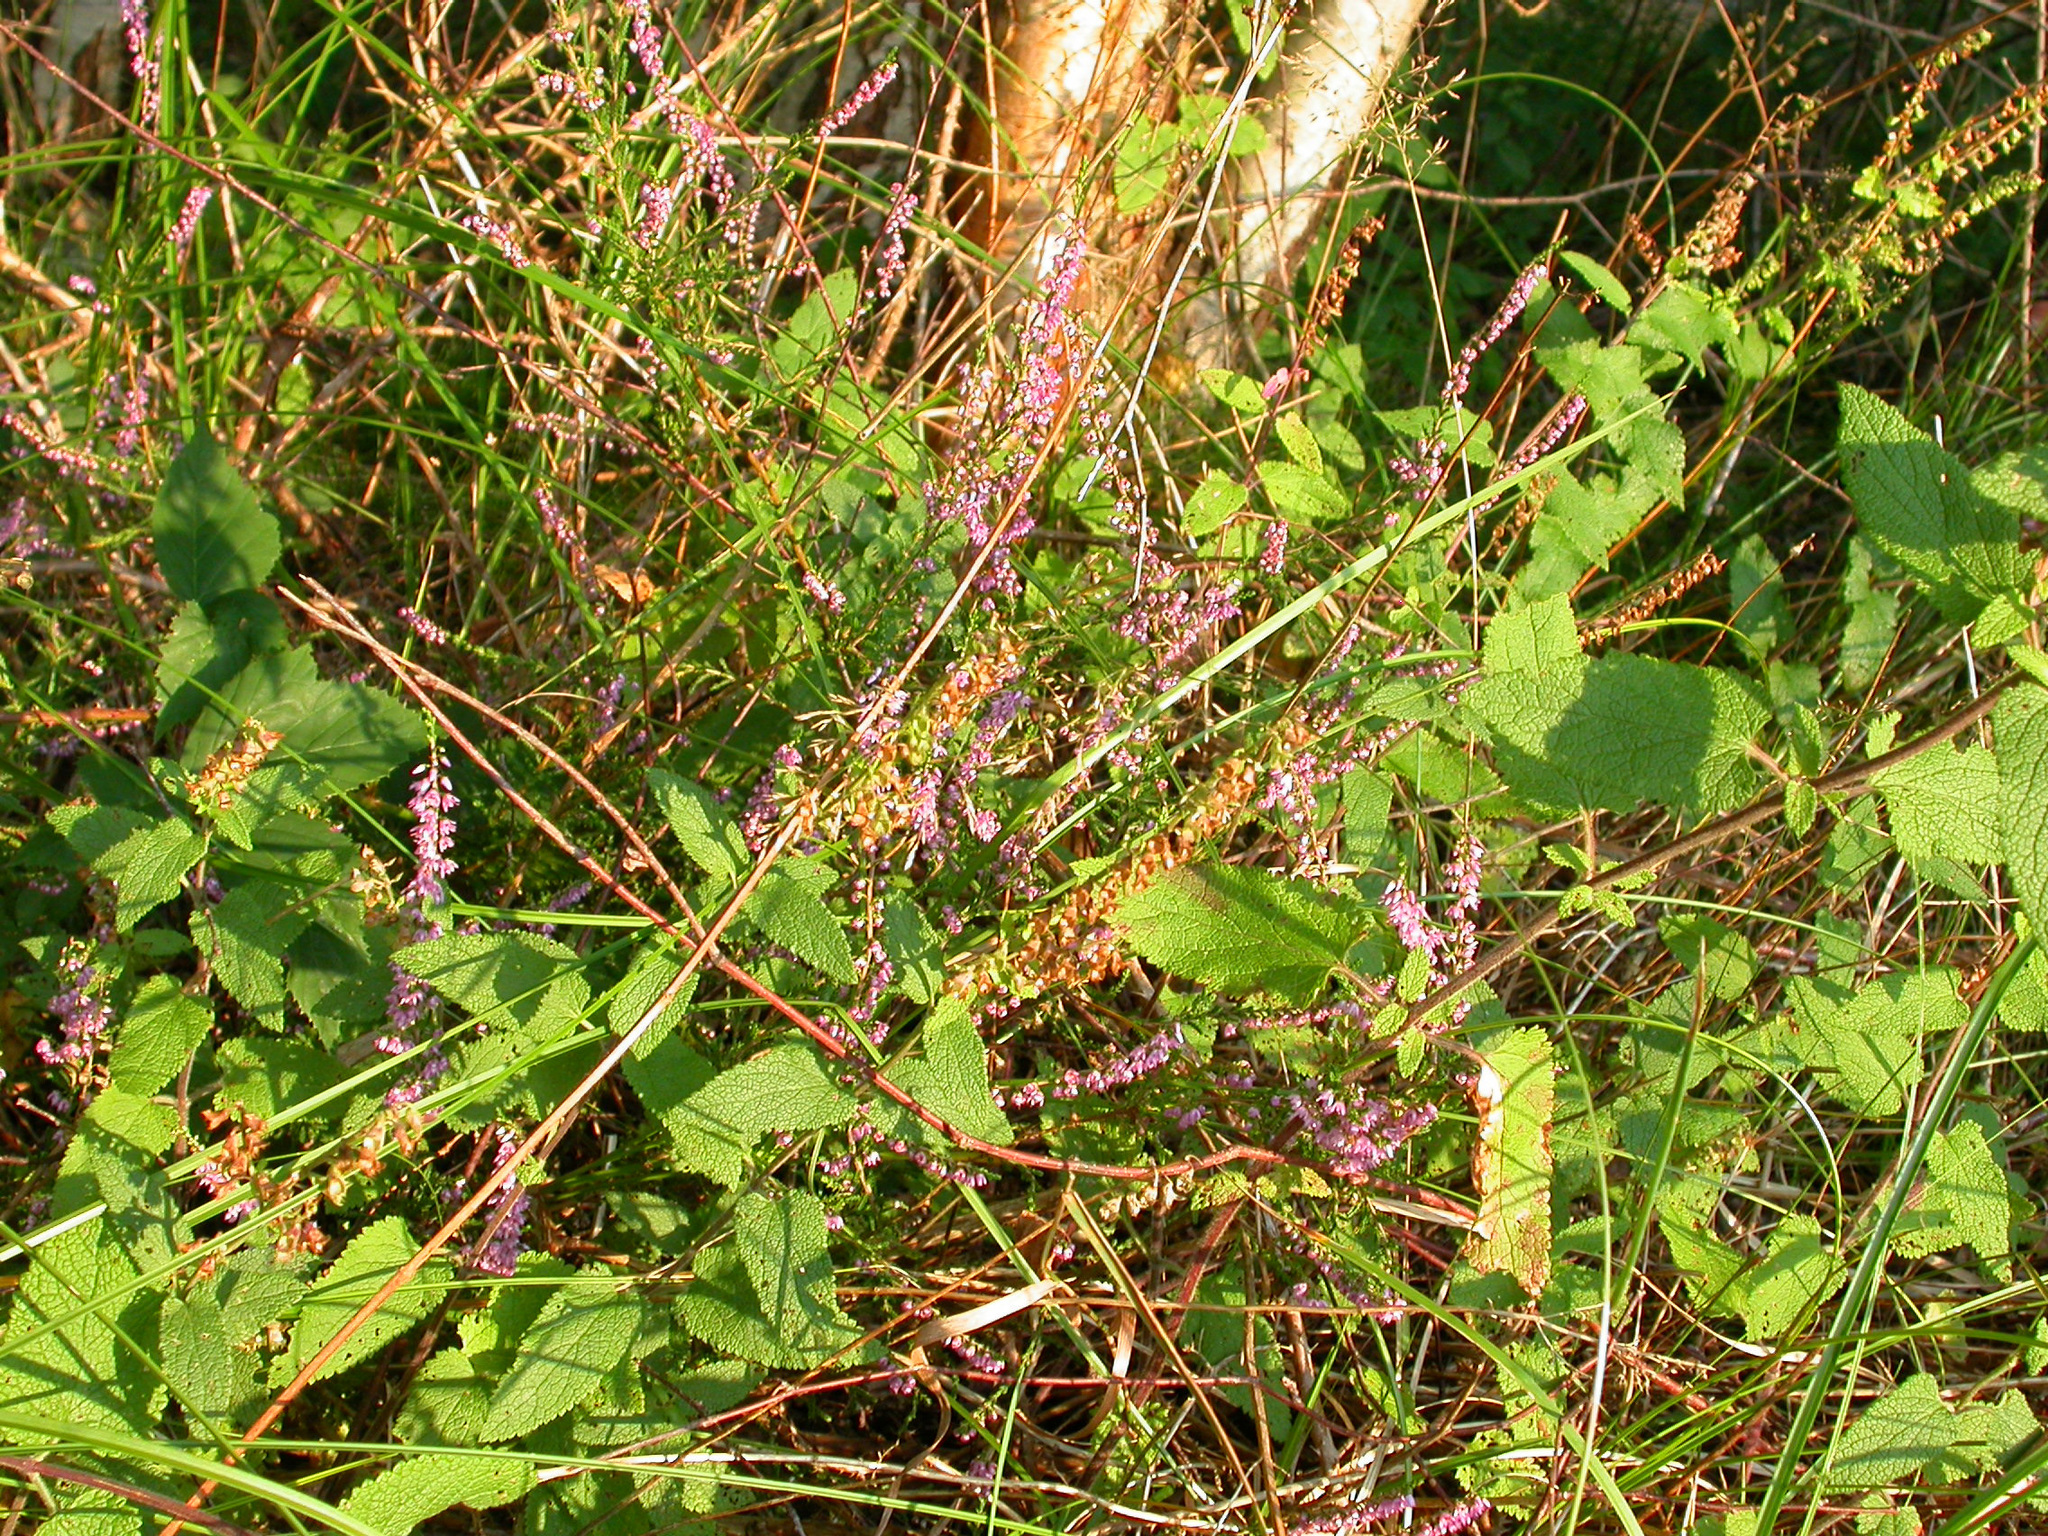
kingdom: Plantae
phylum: Tracheophyta
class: Magnoliopsida
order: Ericales
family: Ericaceae
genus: Calluna
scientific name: Calluna vulgaris
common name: Heather
